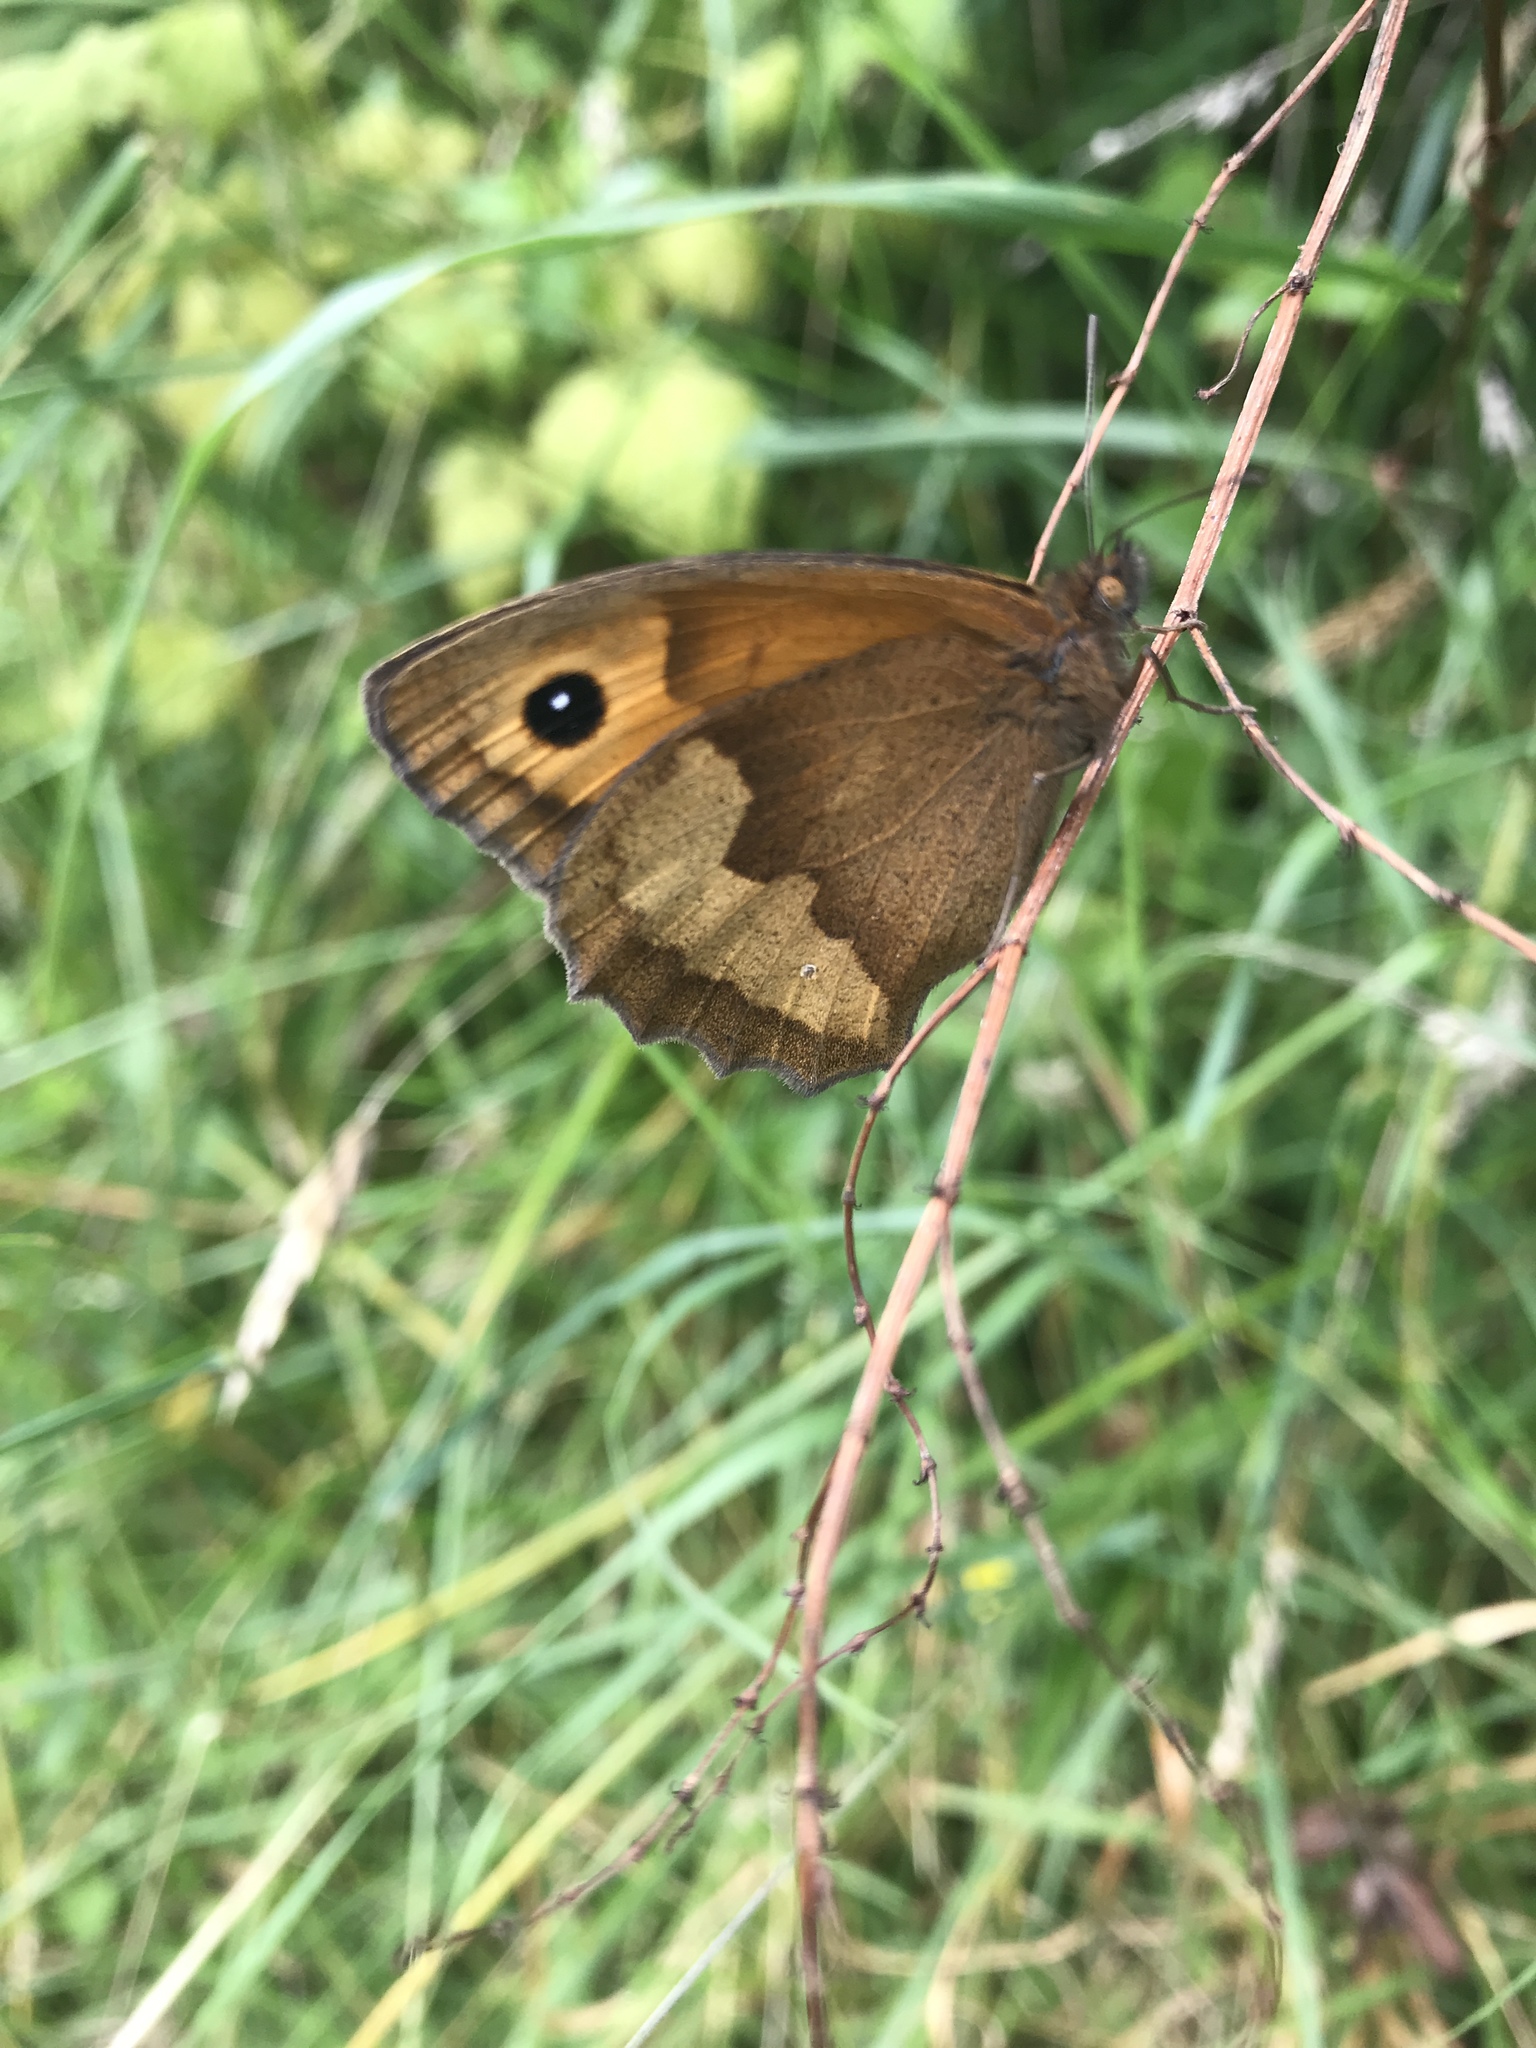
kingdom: Animalia
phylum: Arthropoda
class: Insecta
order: Lepidoptera
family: Nymphalidae
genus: Maniola
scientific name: Maniola jurtina
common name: Meadow brown
